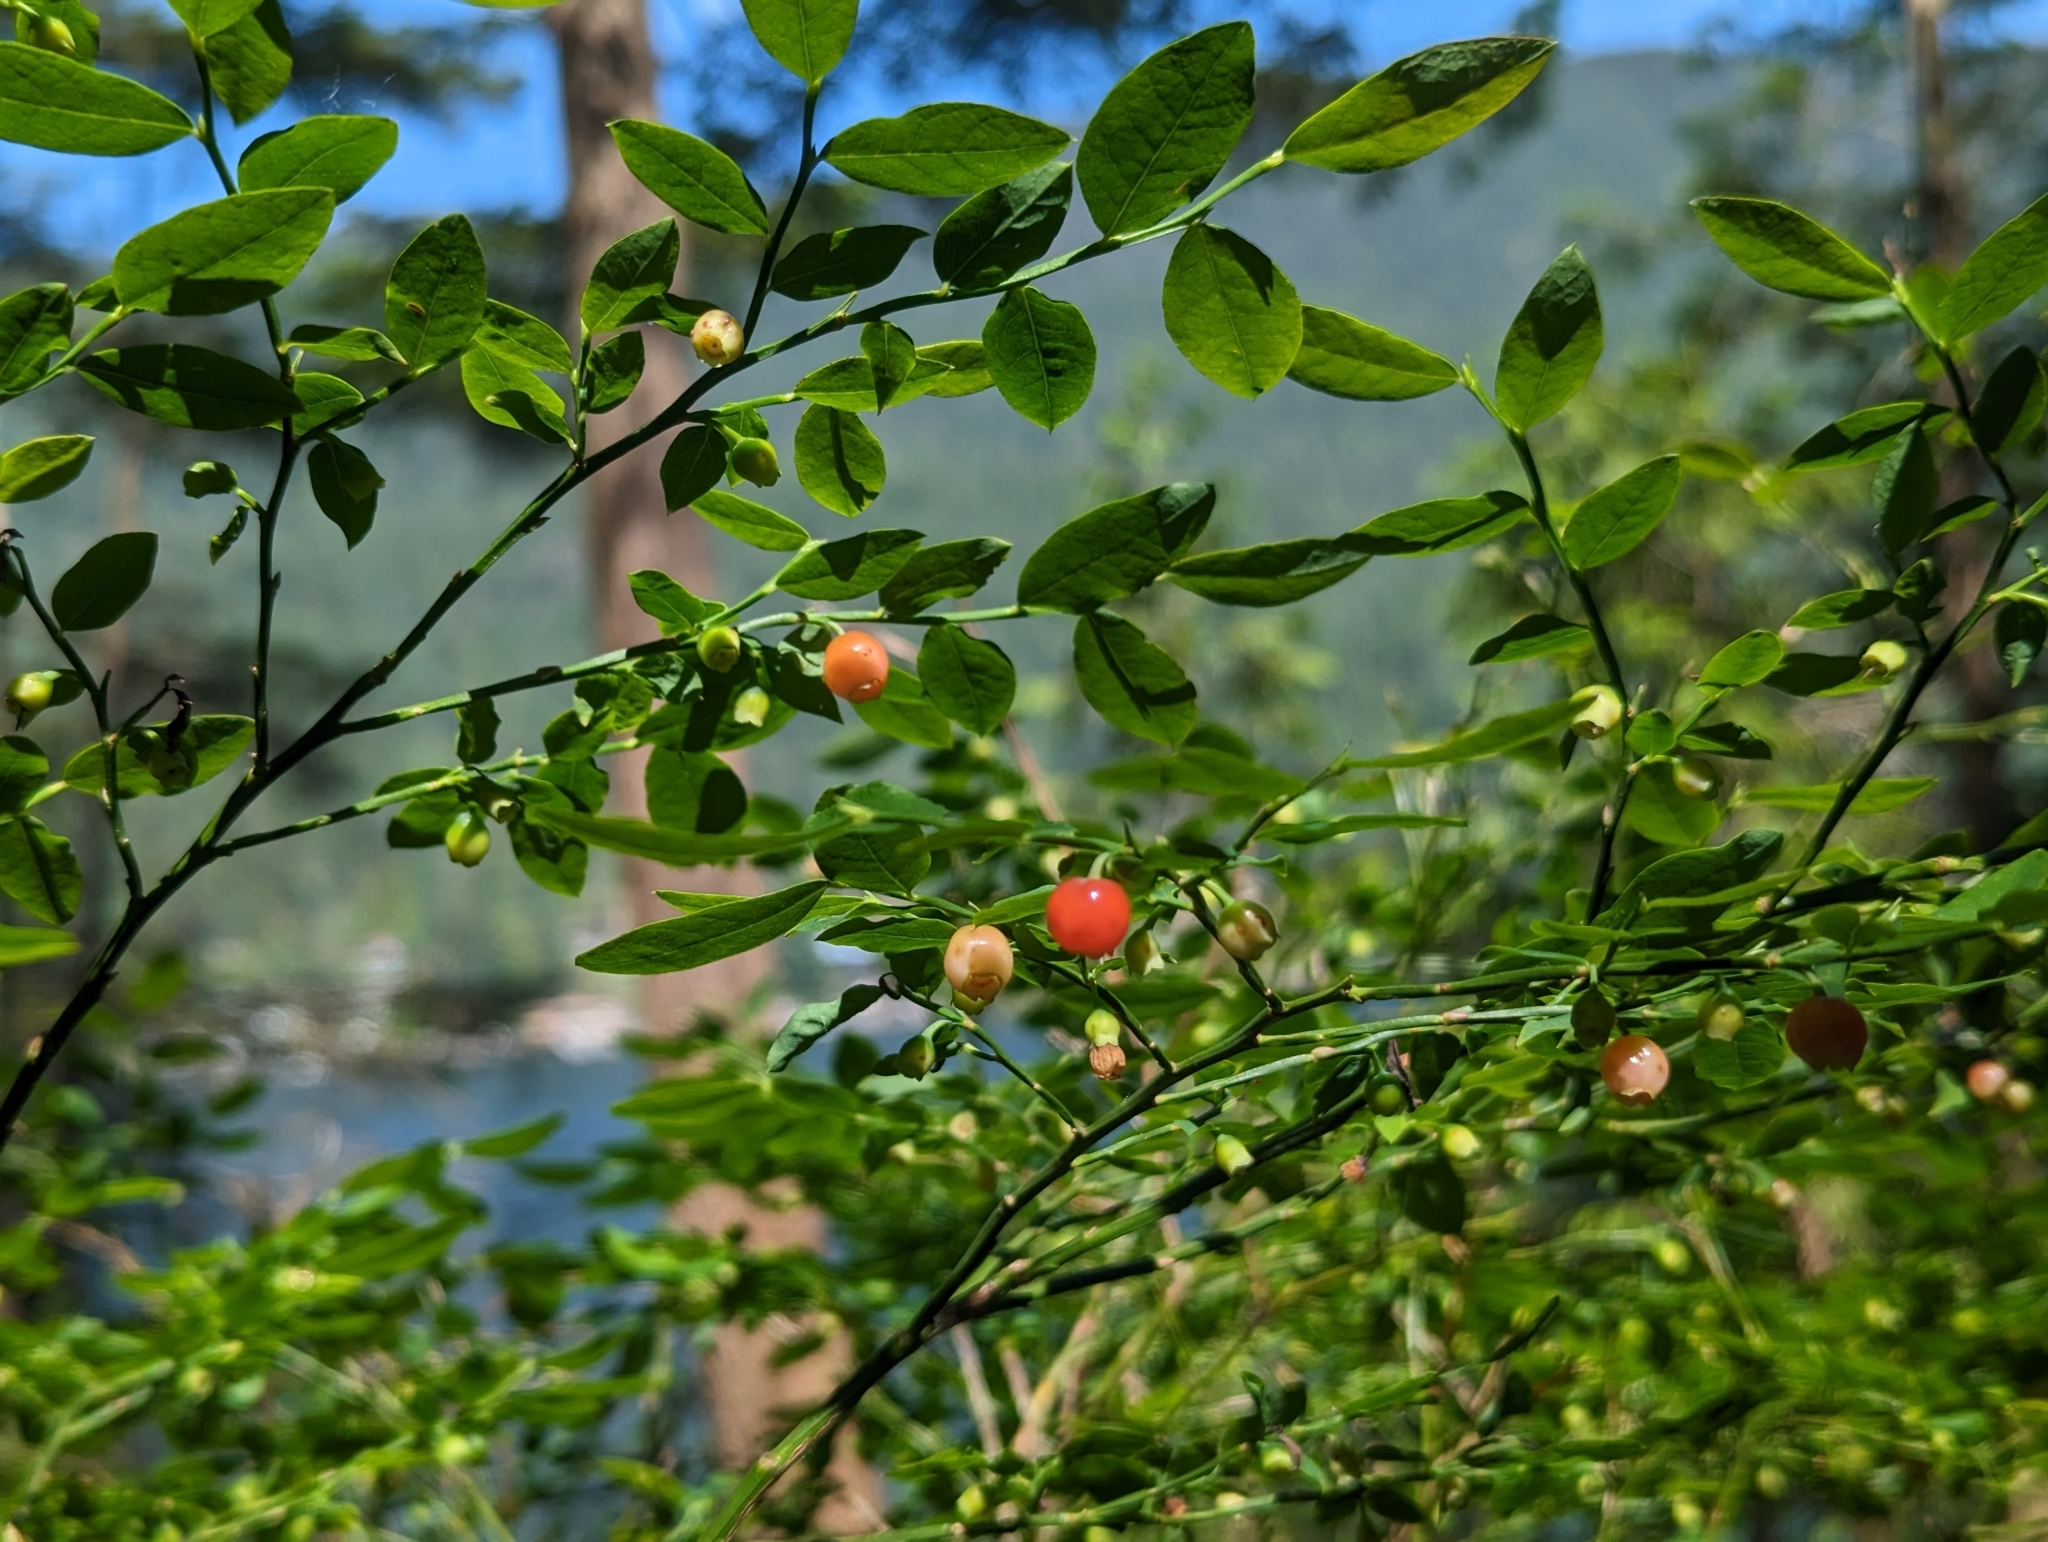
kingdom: Plantae
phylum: Tracheophyta
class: Magnoliopsida
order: Ericales
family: Ericaceae
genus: Vaccinium
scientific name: Vaccinium parvifolium
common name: Red-huckleberry
